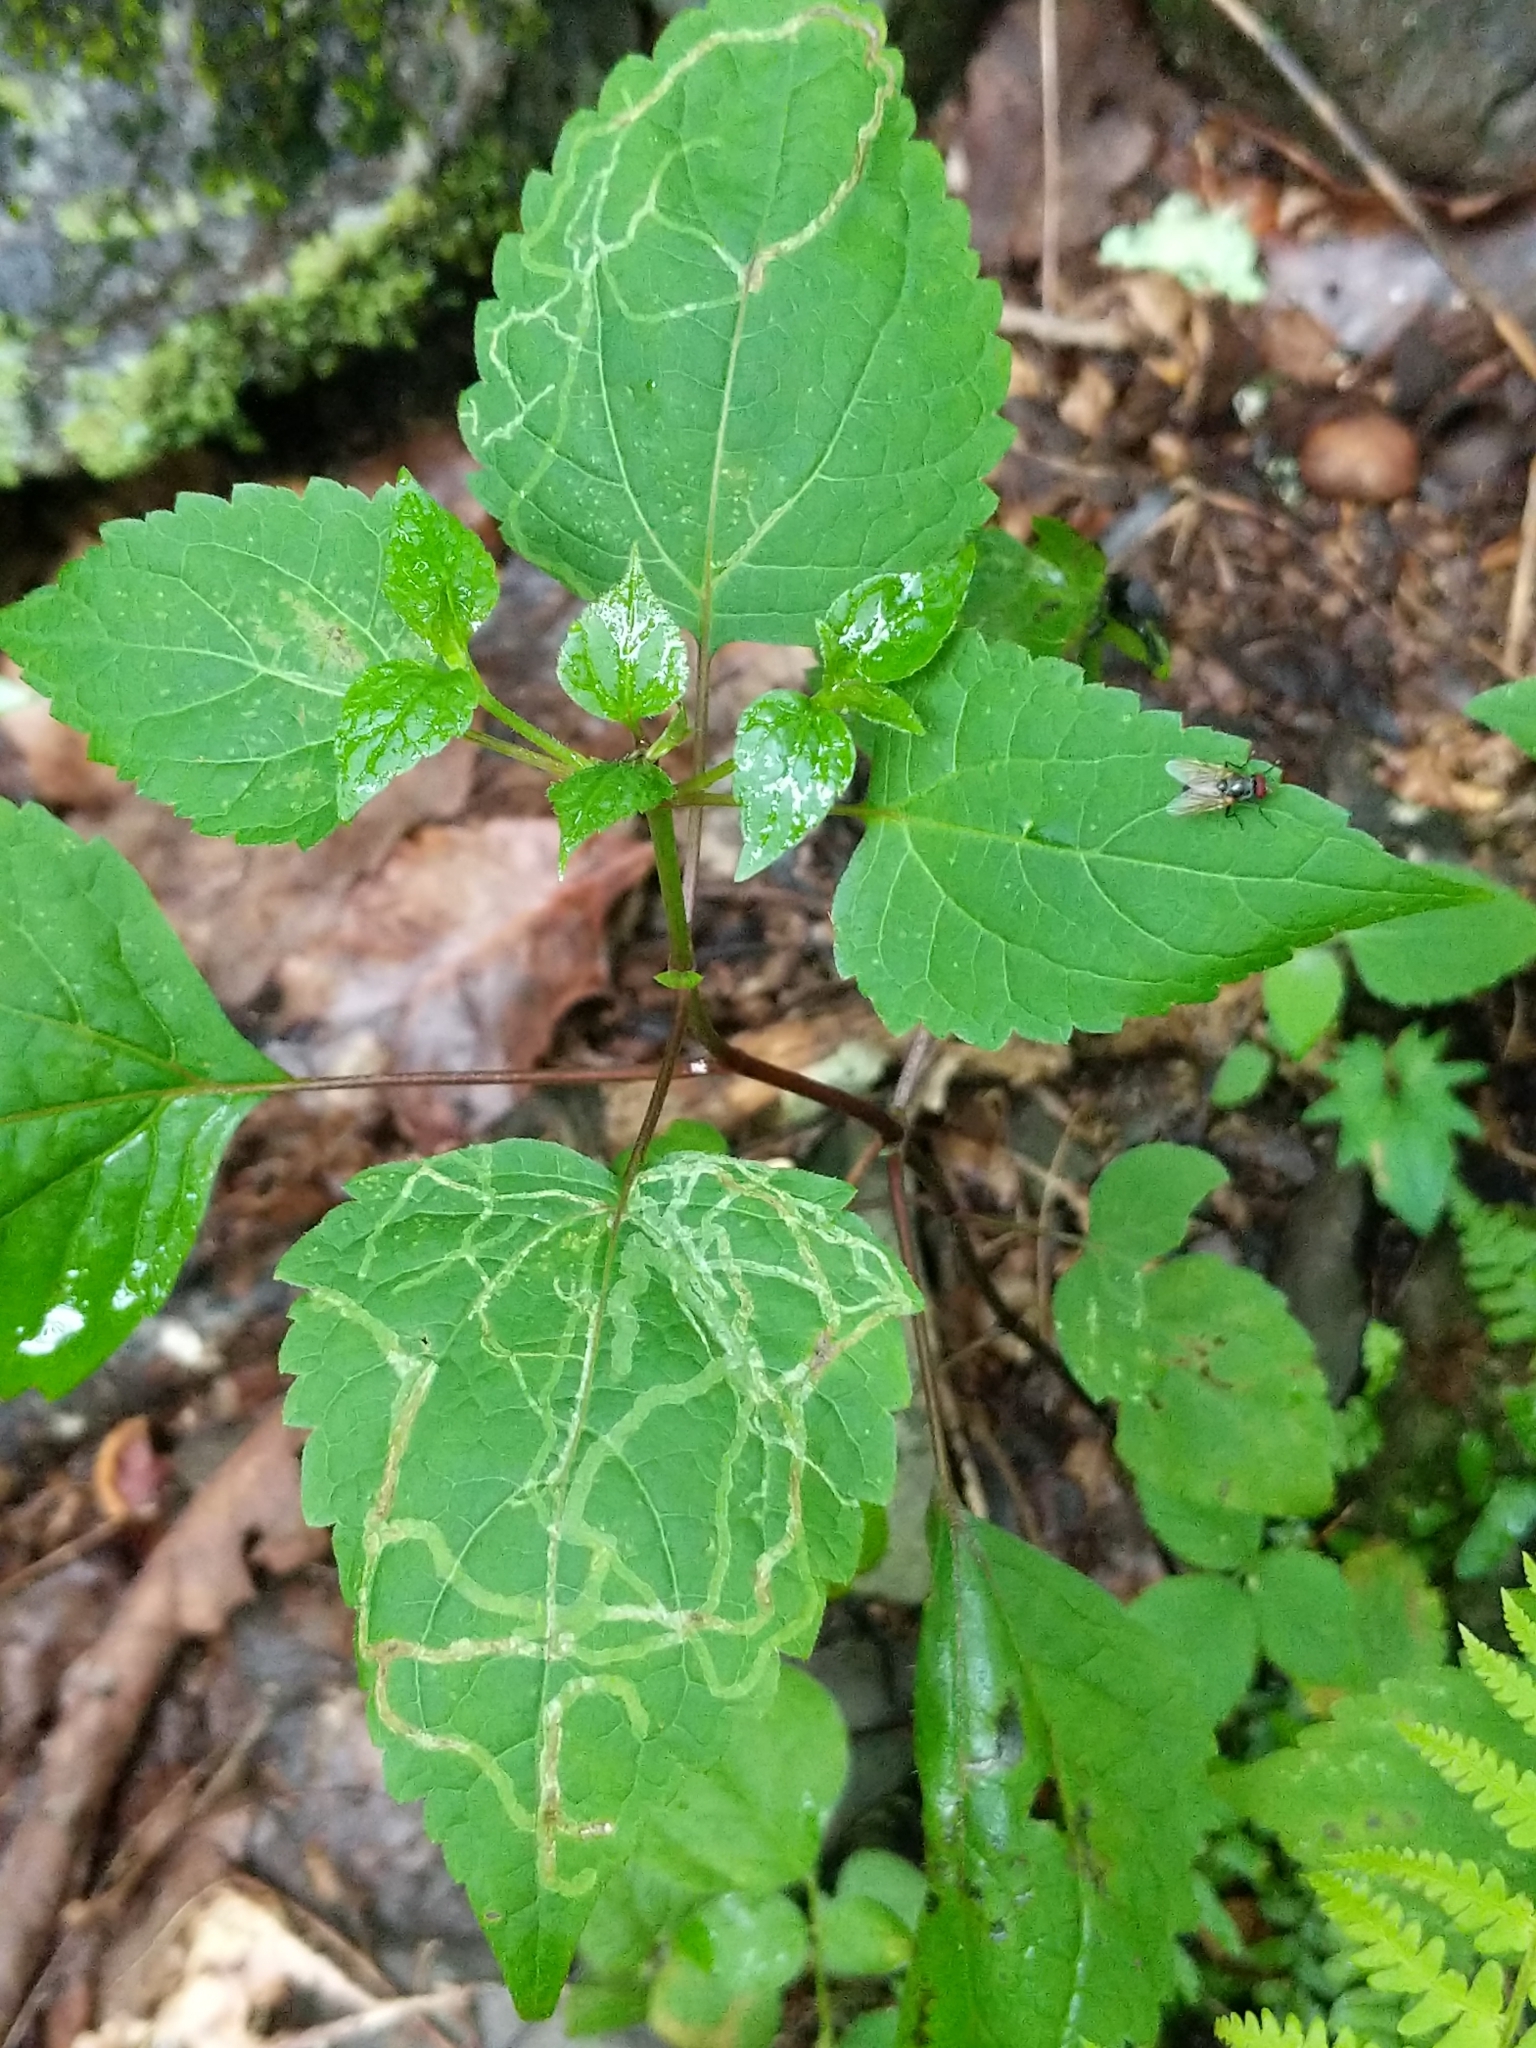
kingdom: Plantae
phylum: Tracheophyta
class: Magnoliopsida
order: Asterales
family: Asteraceae
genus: Ageratina
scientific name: Ageratina altissima
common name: White snakeroot
